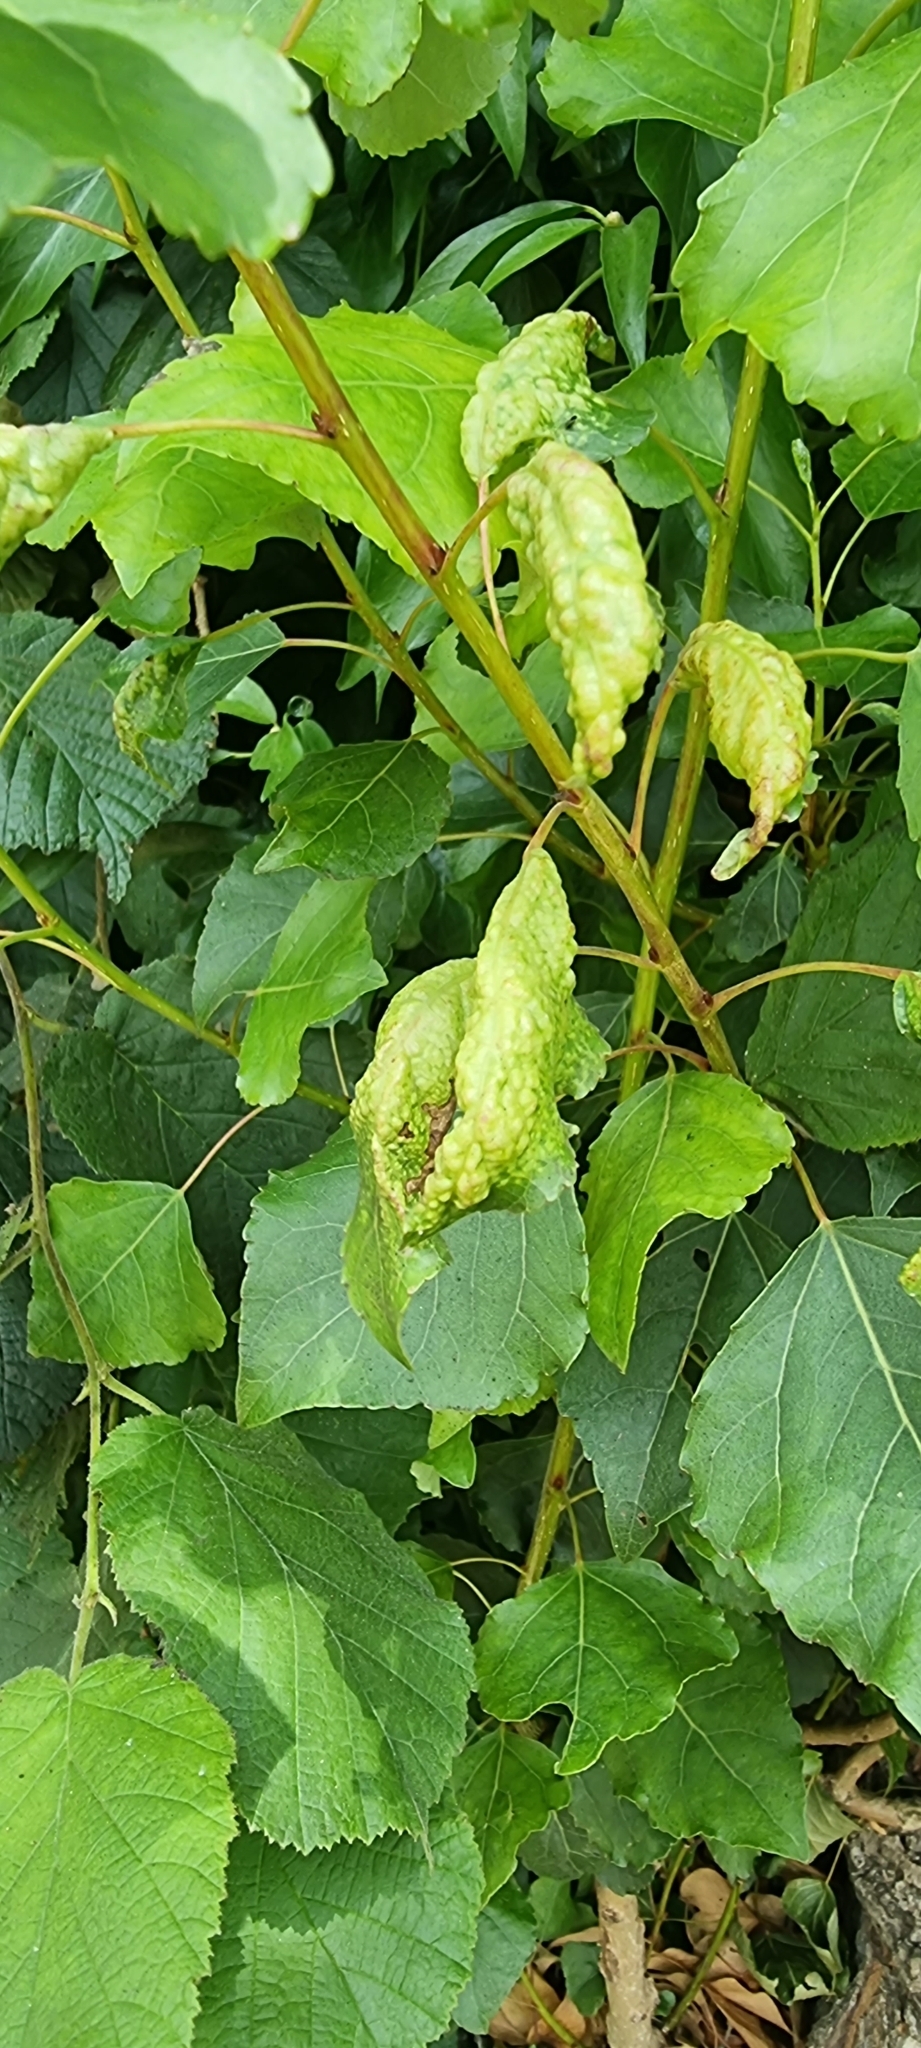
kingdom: Animalia
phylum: Arthropoda
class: Insecta
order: Hemiptera
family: Aphididae
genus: Thecabius
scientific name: Thecabius affinis
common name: Aphid
